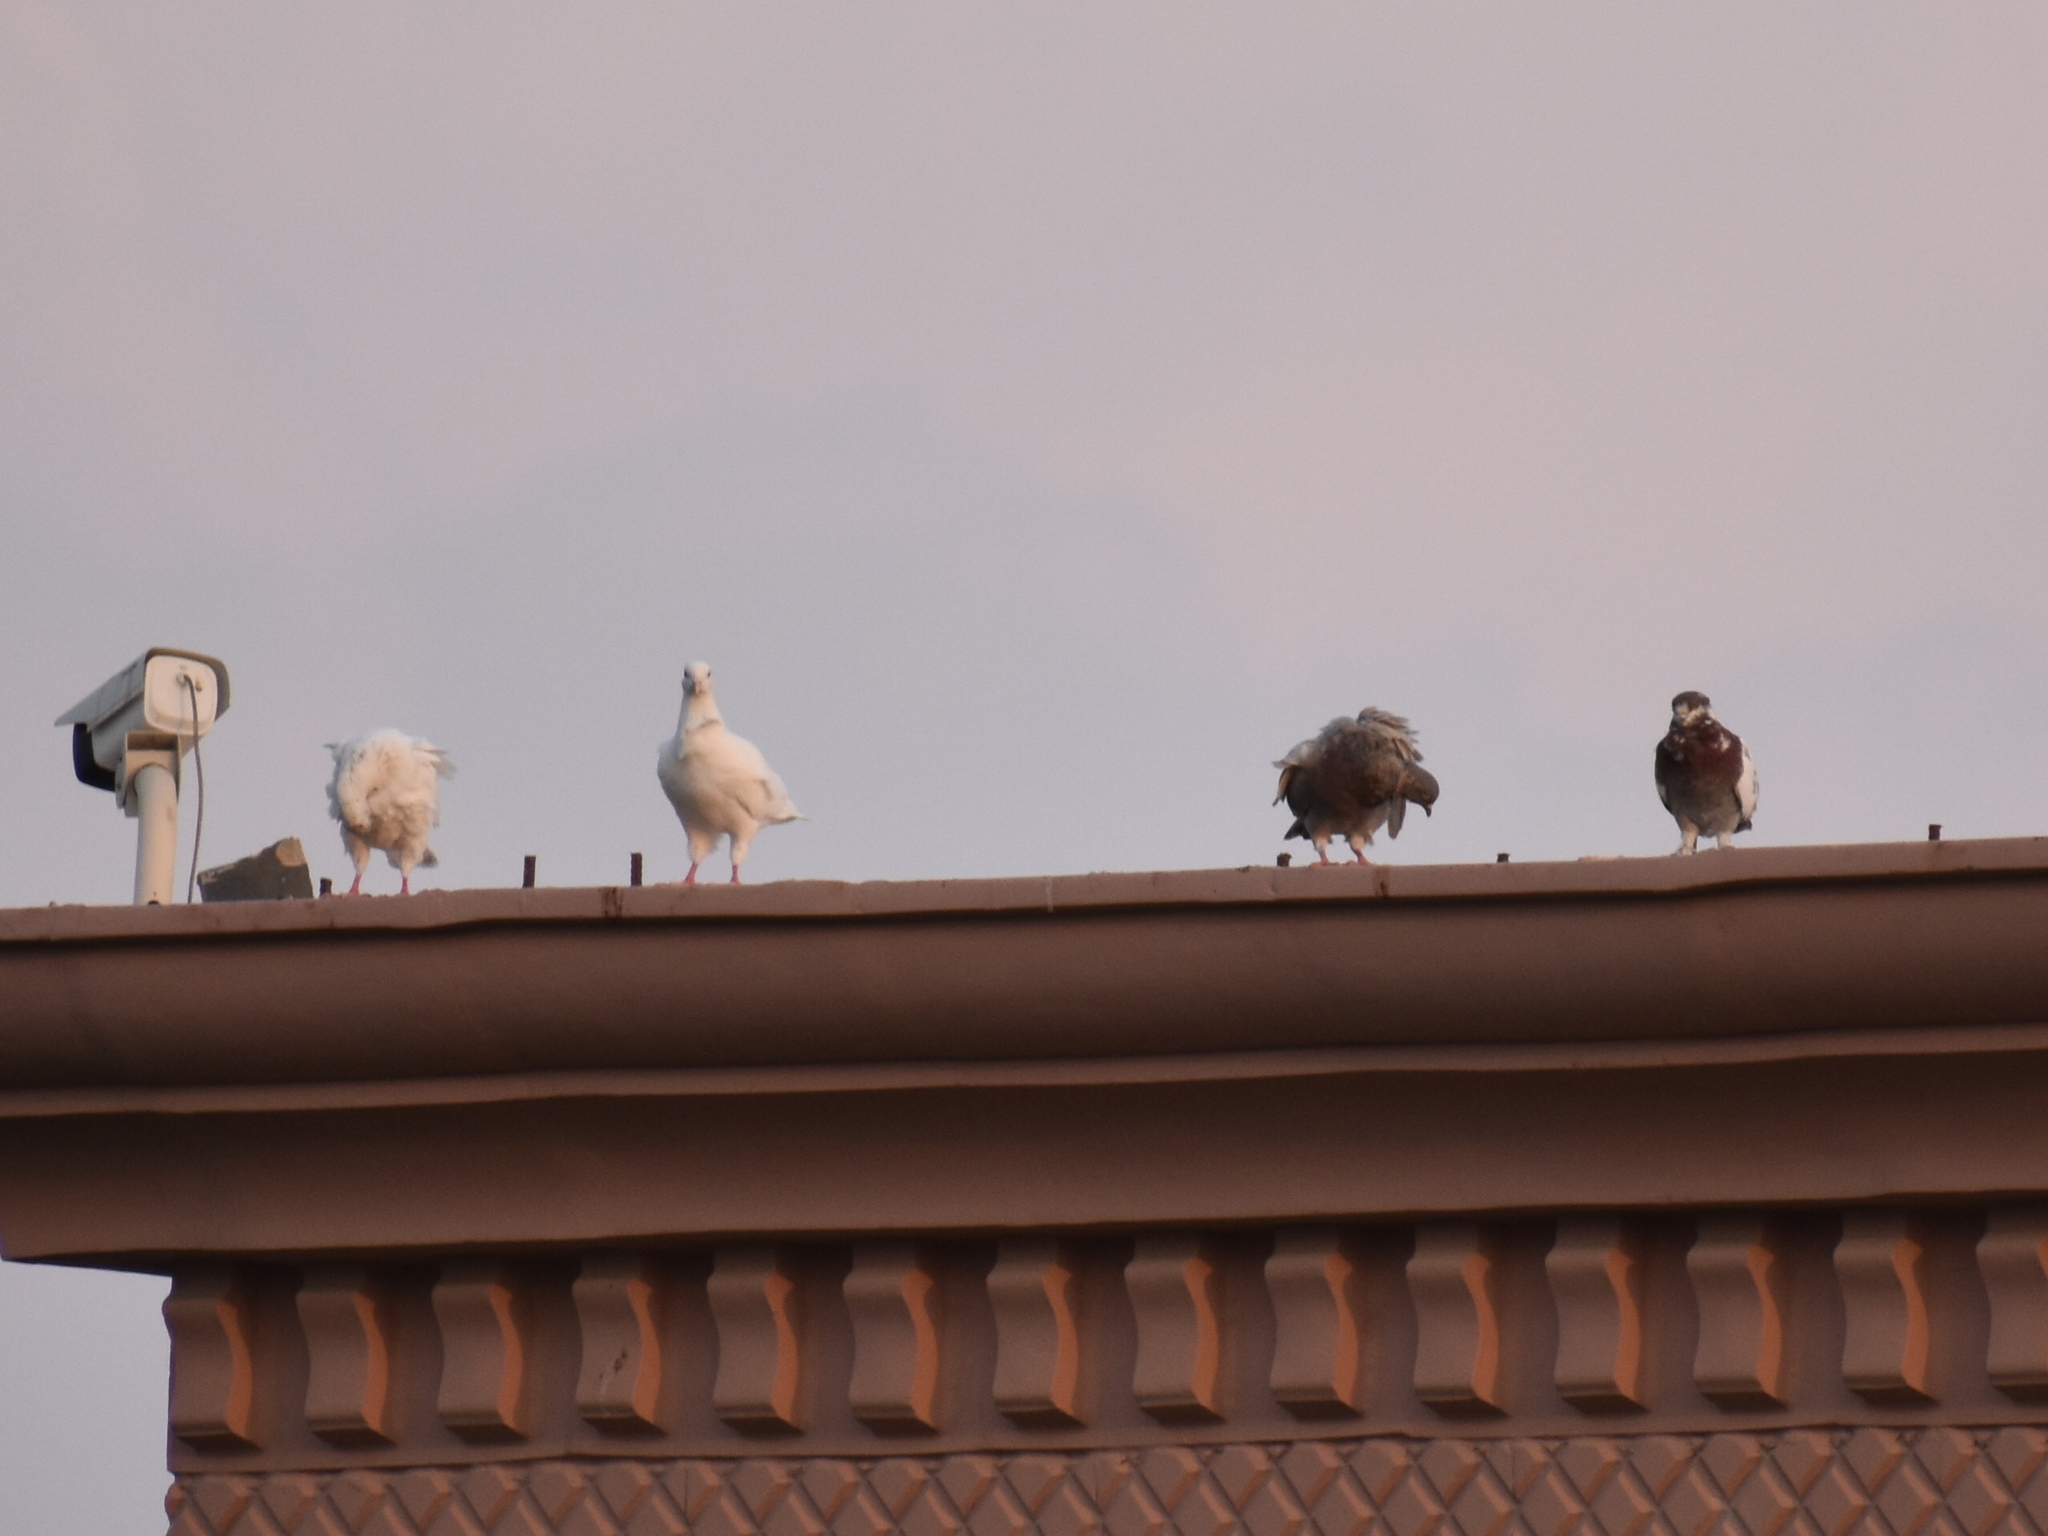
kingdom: Animalia
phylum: Chordata
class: Aves
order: Columbiformes
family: Columbidae
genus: Columba
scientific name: Columba livia
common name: Rock pigeon
